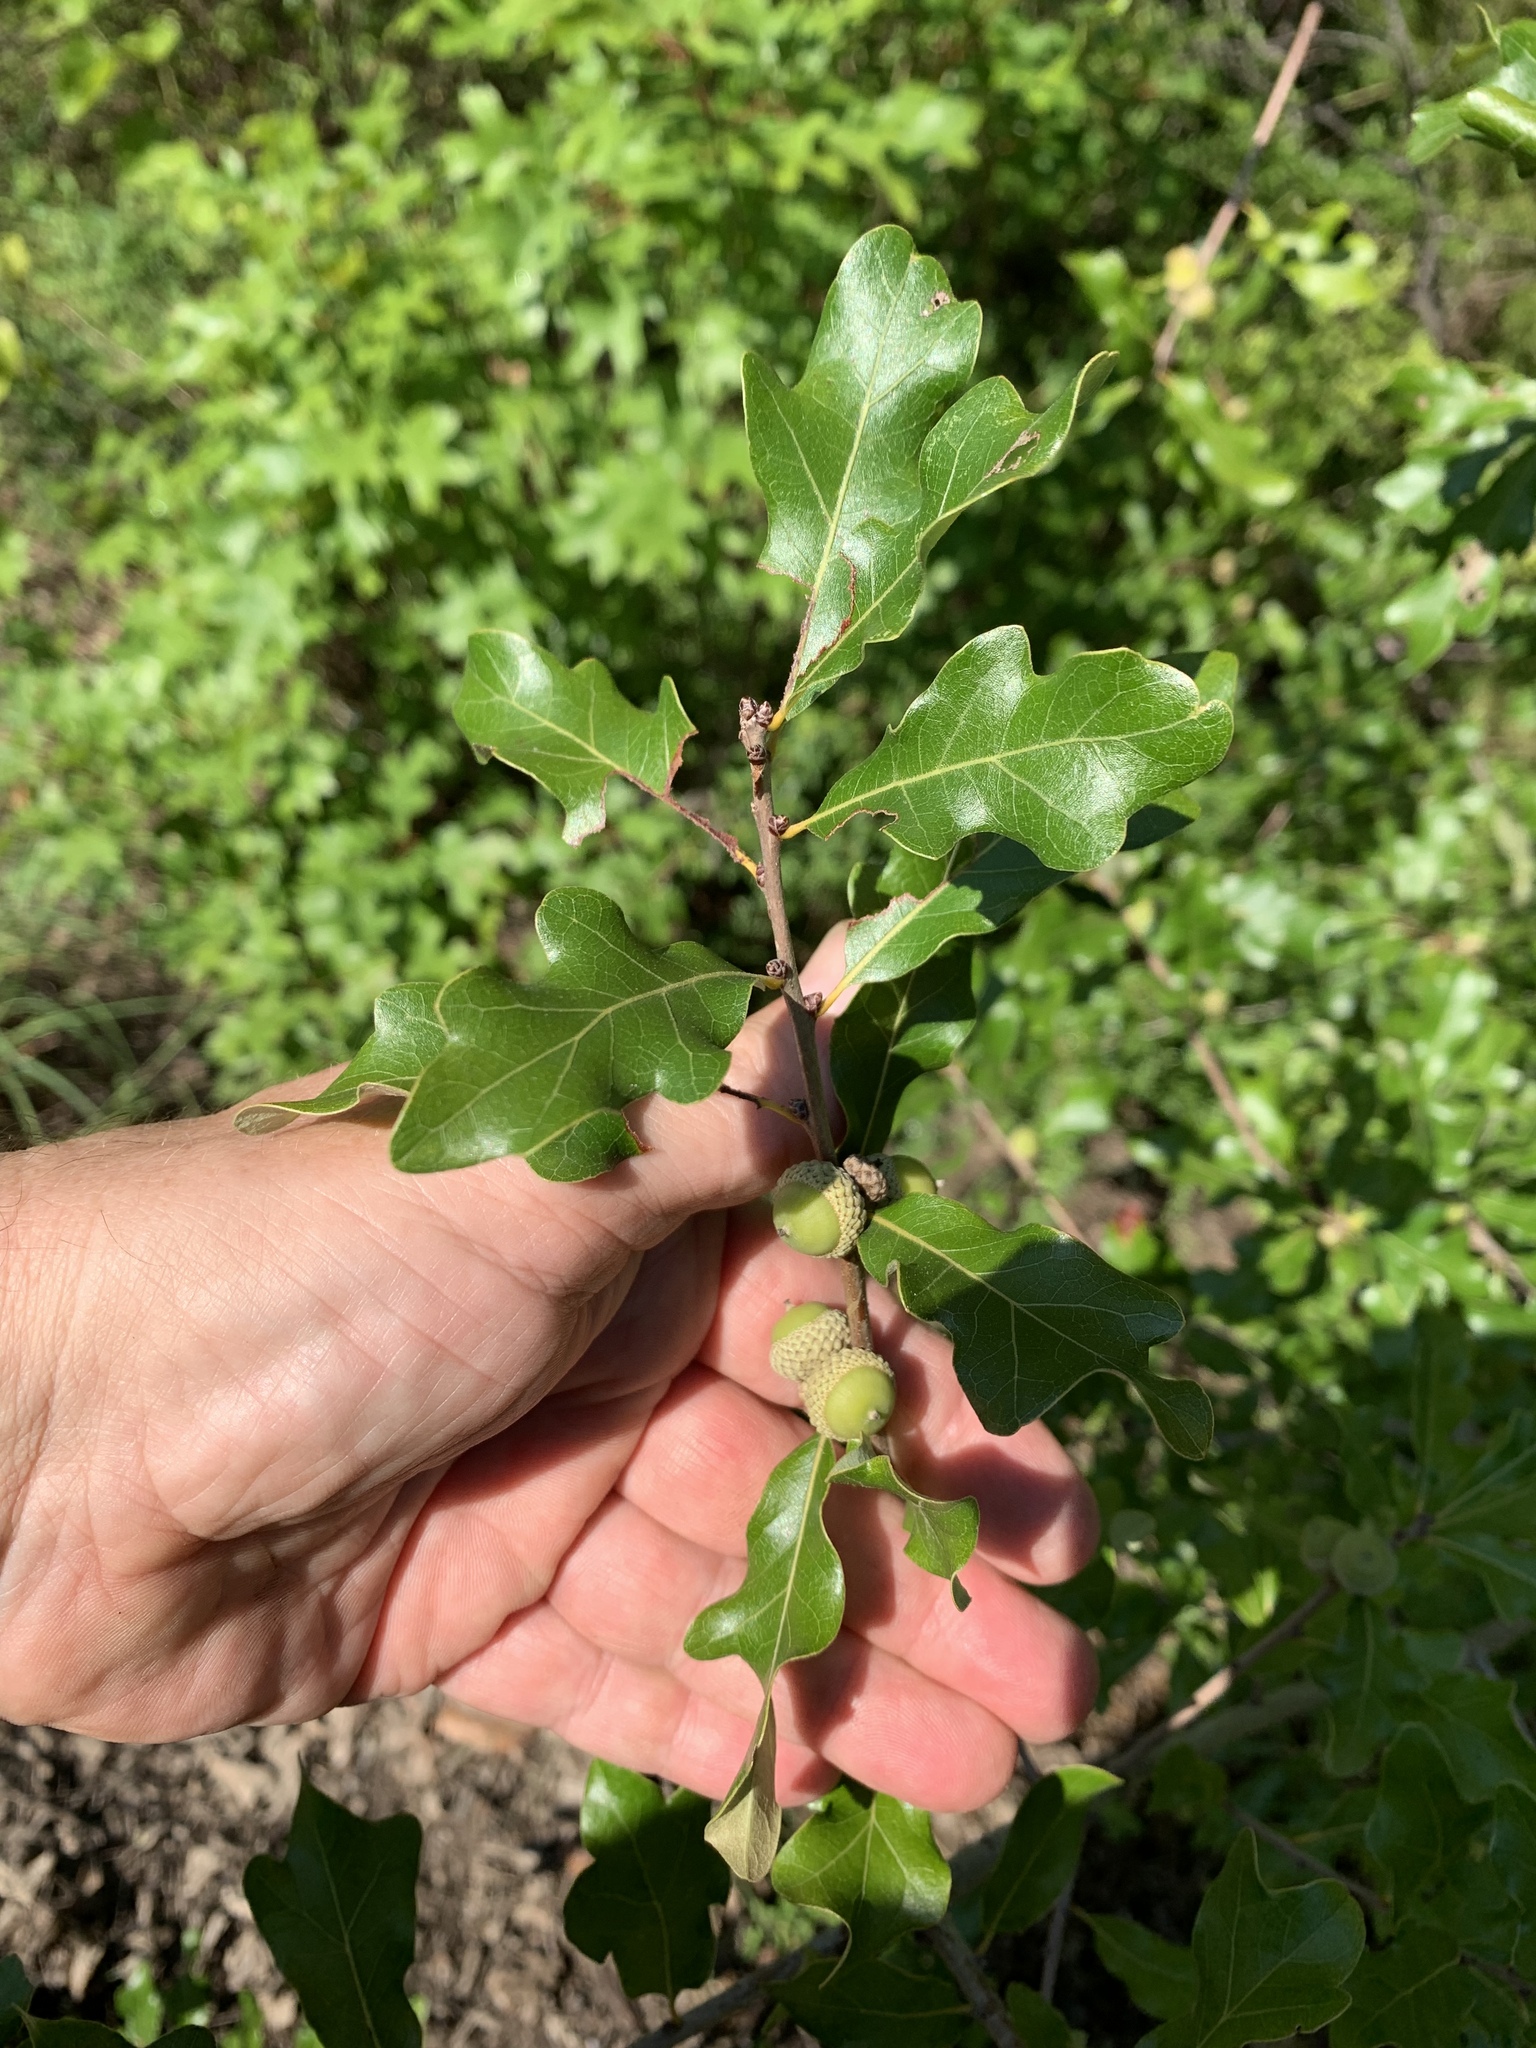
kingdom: Plantae
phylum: Tracheophyta
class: Magnoliopsida
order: Fagales
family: Fagaceae
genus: Quercus
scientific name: Quercus sinuata
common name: Durand oak
